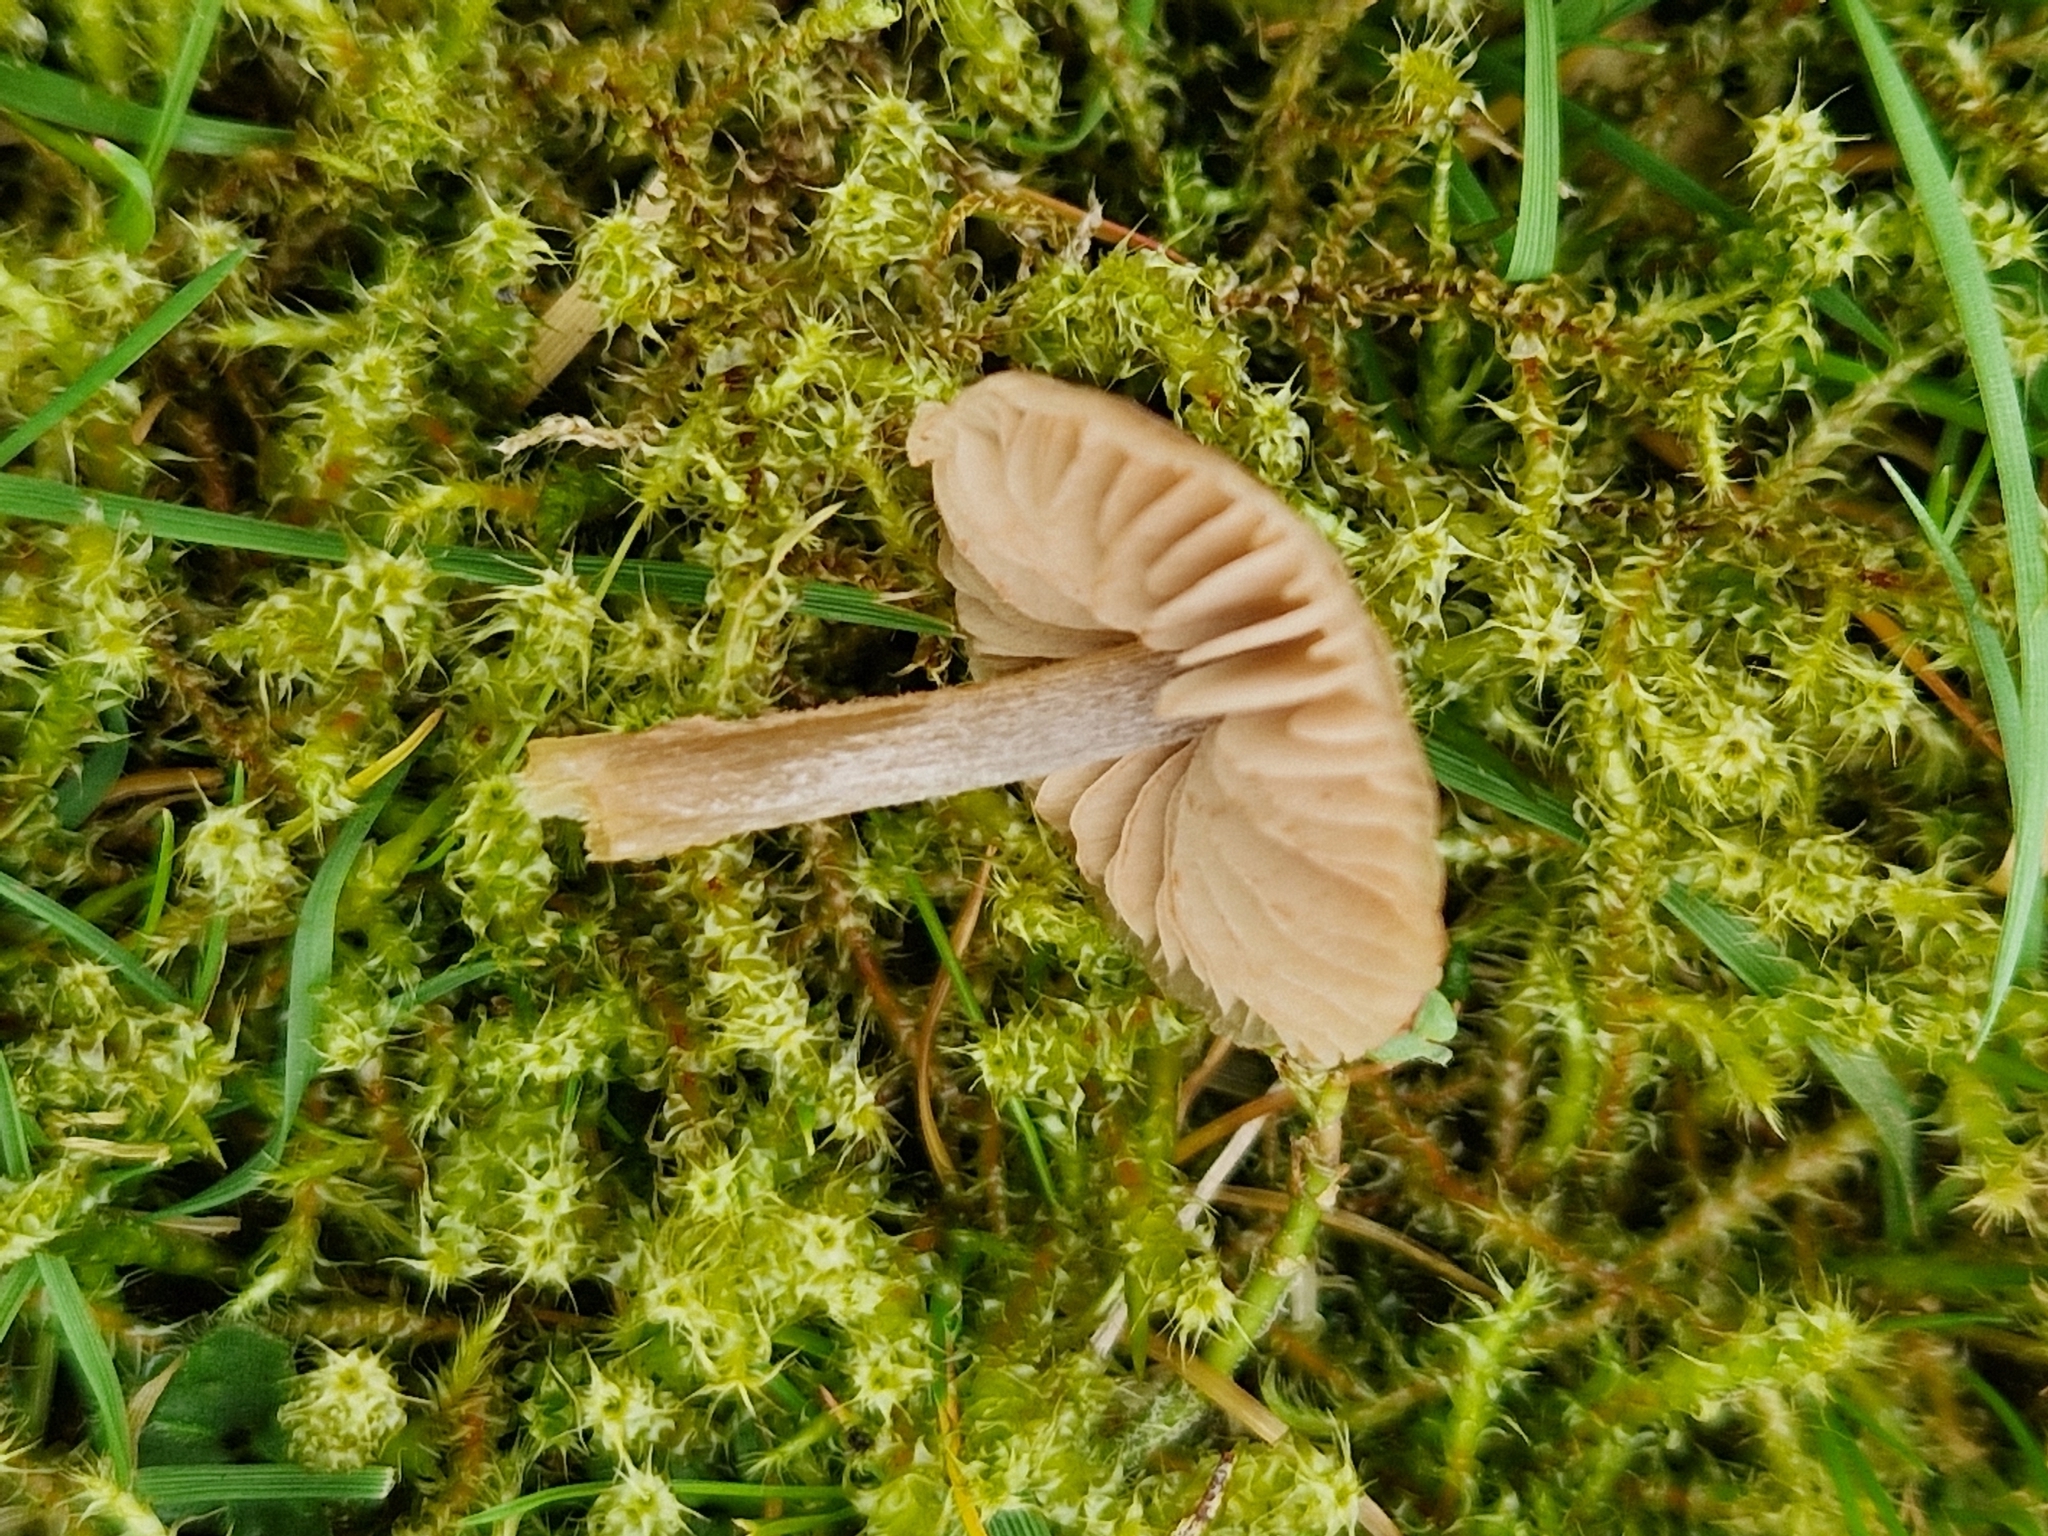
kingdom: Fungi
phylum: Basidiomycota
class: Agaricomycetes
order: Agaricales
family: Entolomataceae
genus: Entoloma
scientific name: Entoloma conferendum
